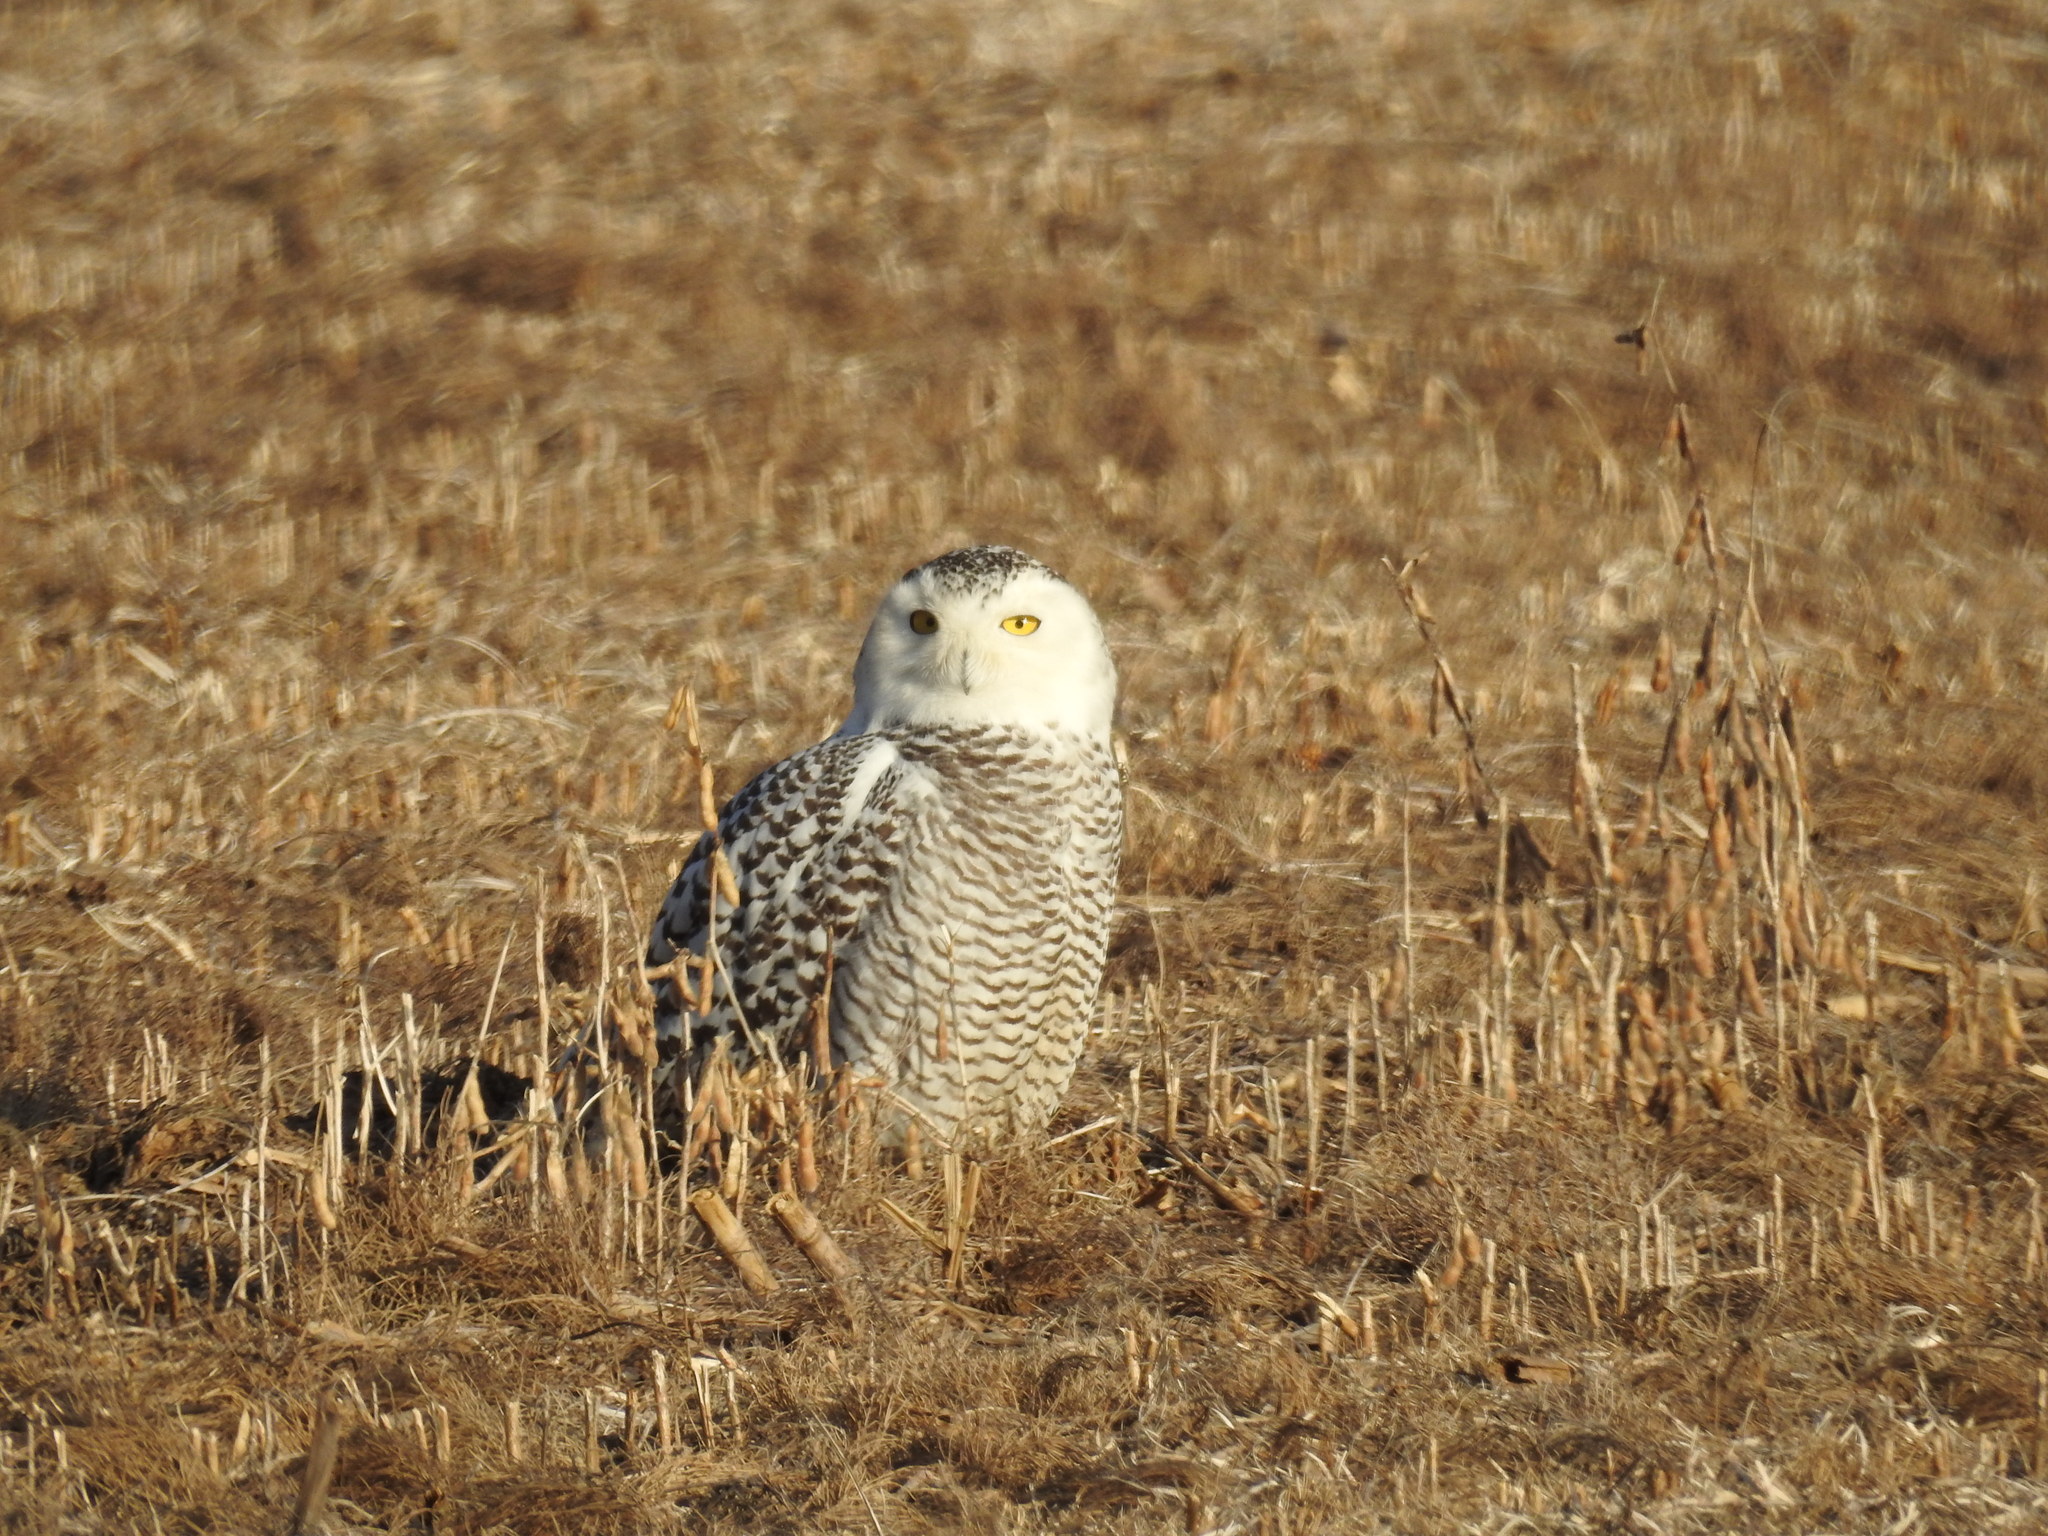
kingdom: Animalia
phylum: Chordata
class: Aves
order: Strigiformes
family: Strigidae
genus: Bubo
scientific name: Bubo scandiacus
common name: Snowy owl
